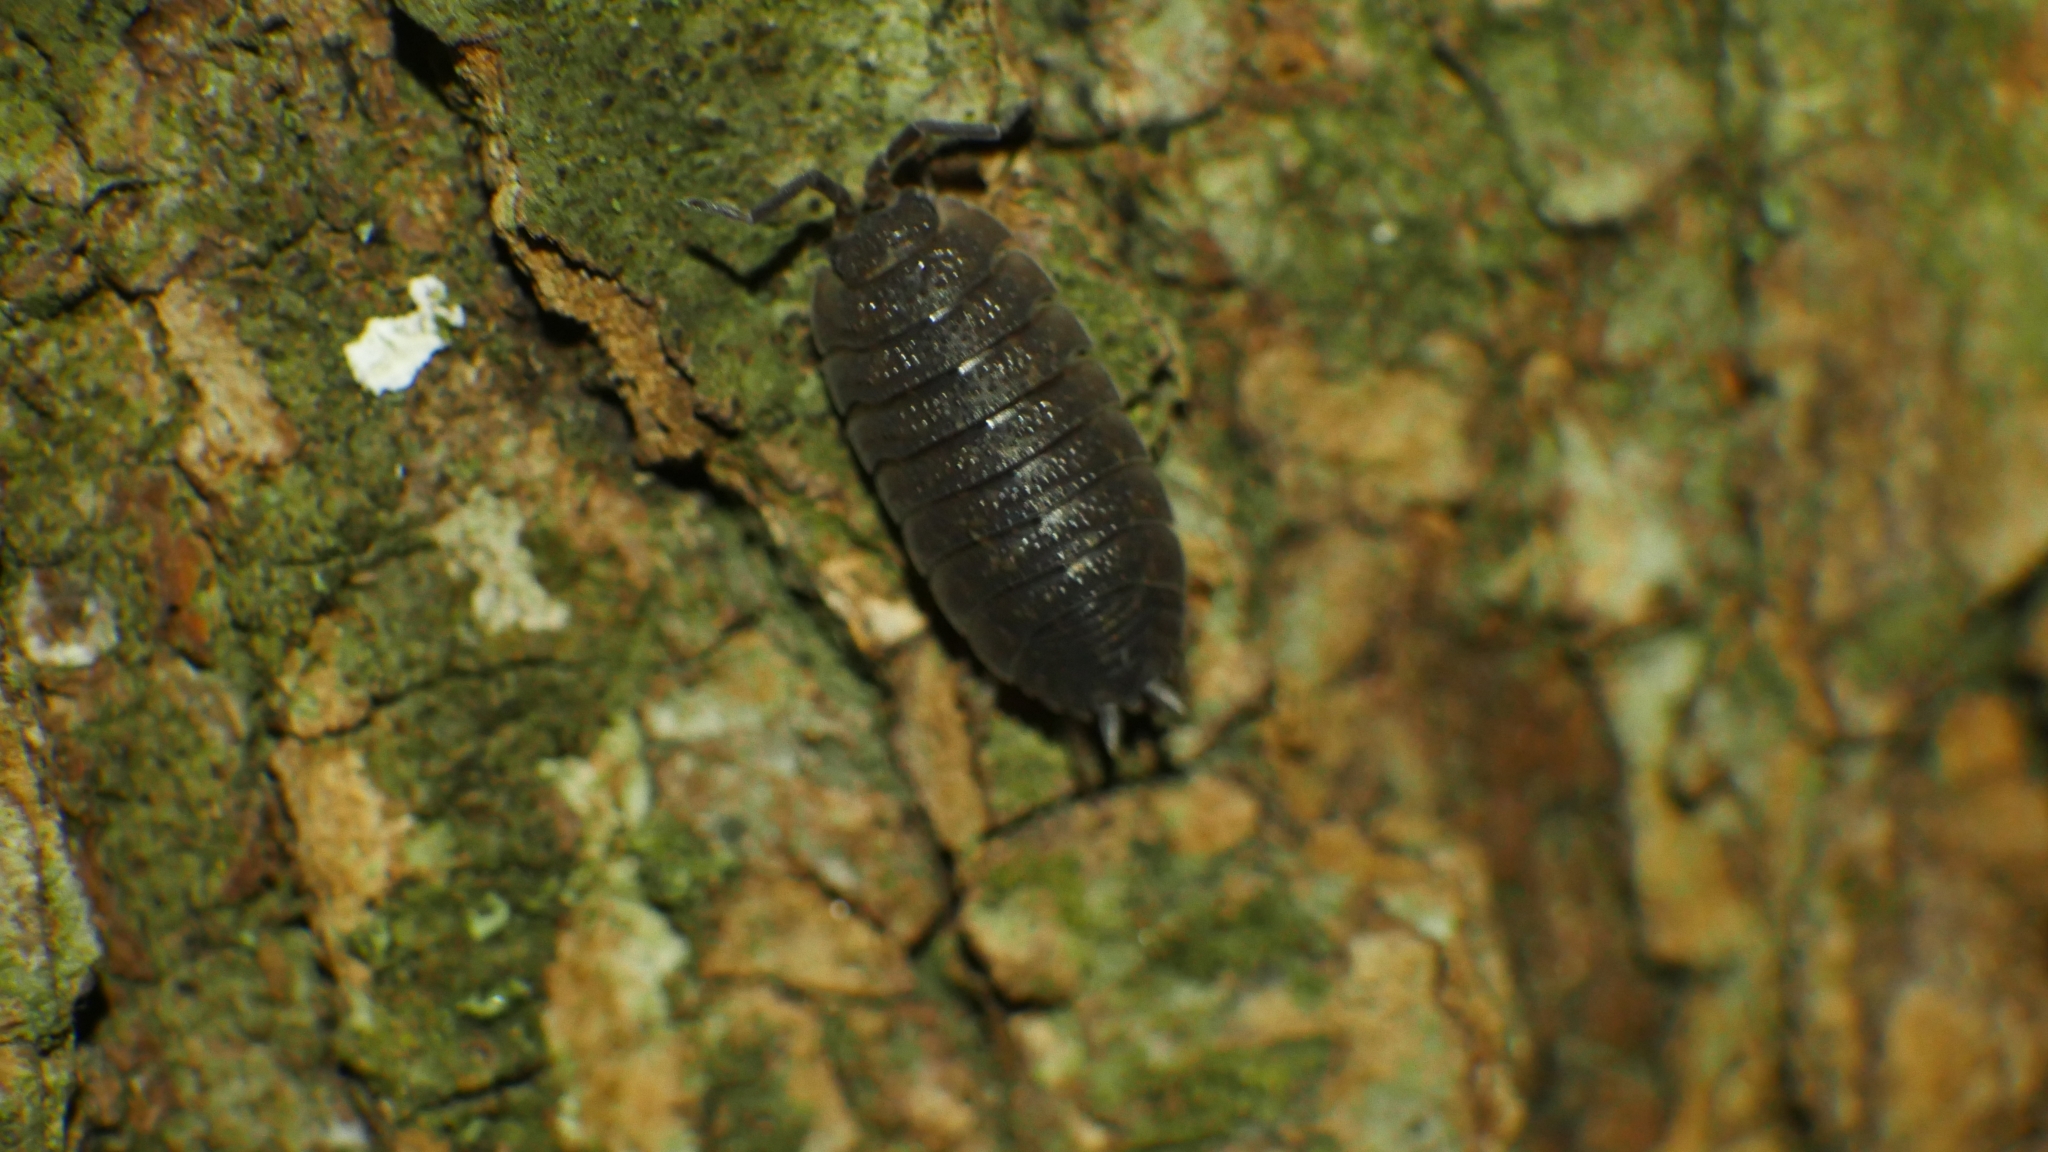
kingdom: Animalia
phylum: Arthropoda
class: Malacostraca
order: Isopoda
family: Porcellionidae
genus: Porcellio
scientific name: Porcellio scaber
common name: Common rough woodlouse
